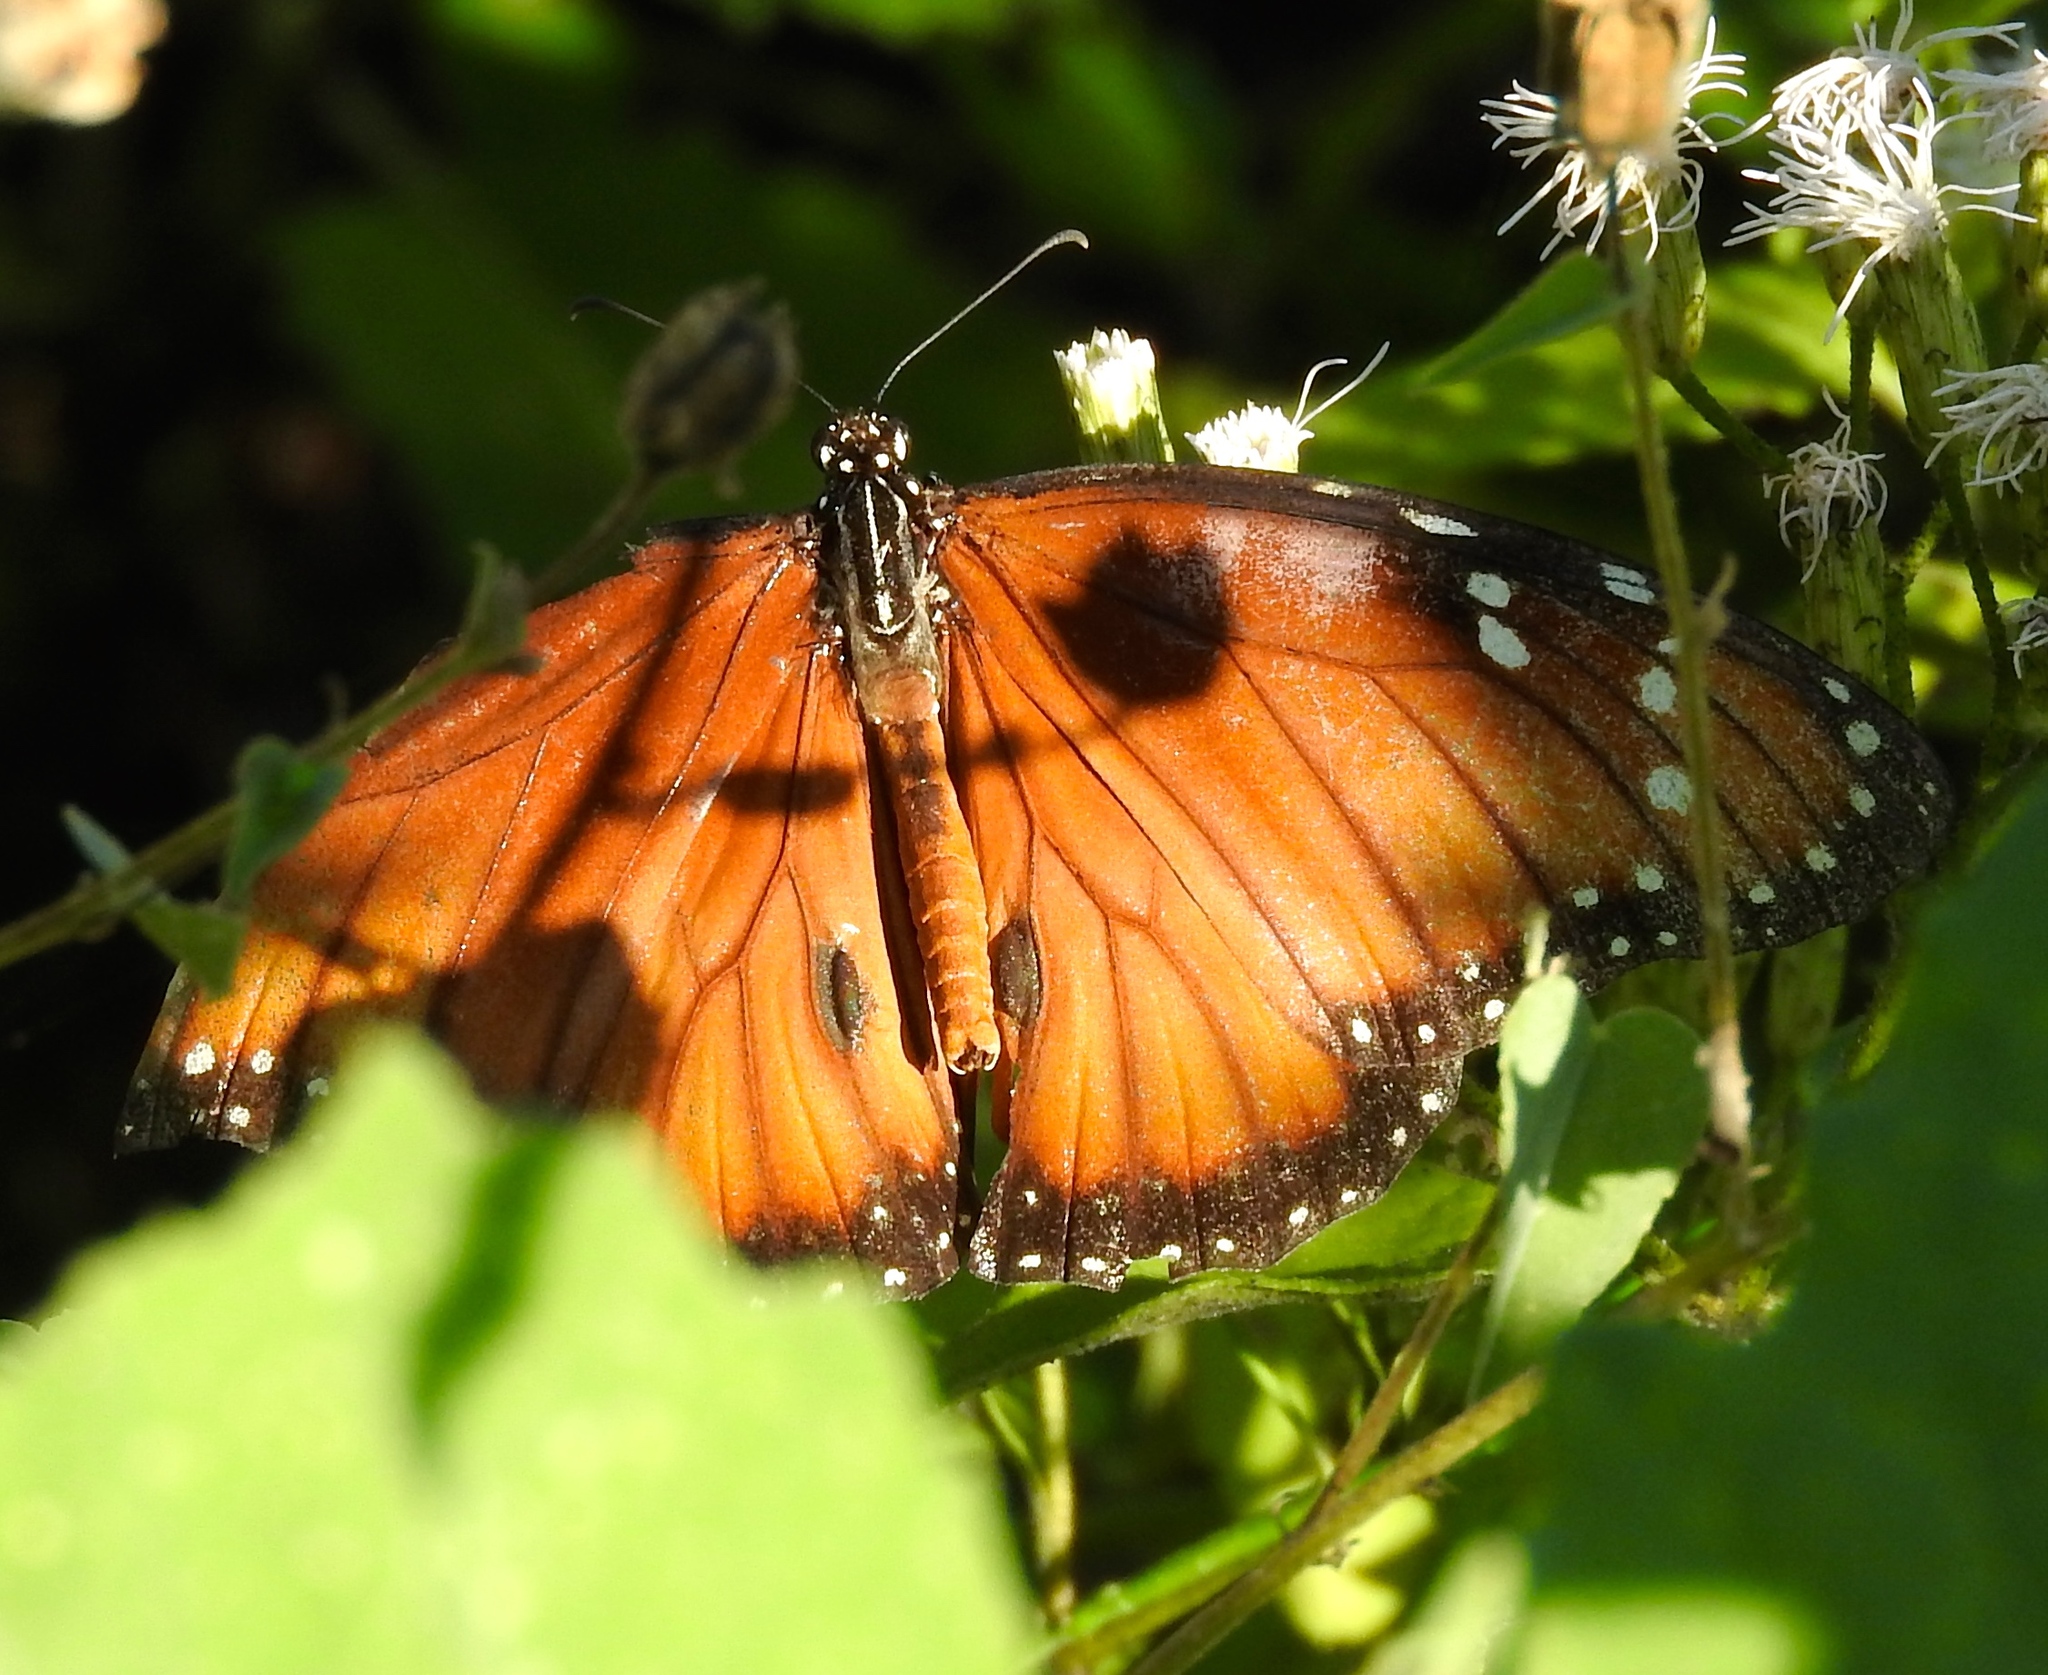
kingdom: Animalia
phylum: Arthropoda
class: Insecta
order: Lepidoptera
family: Nymphalidae
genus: Danaus
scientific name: Danaus eresimus
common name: Soldier
